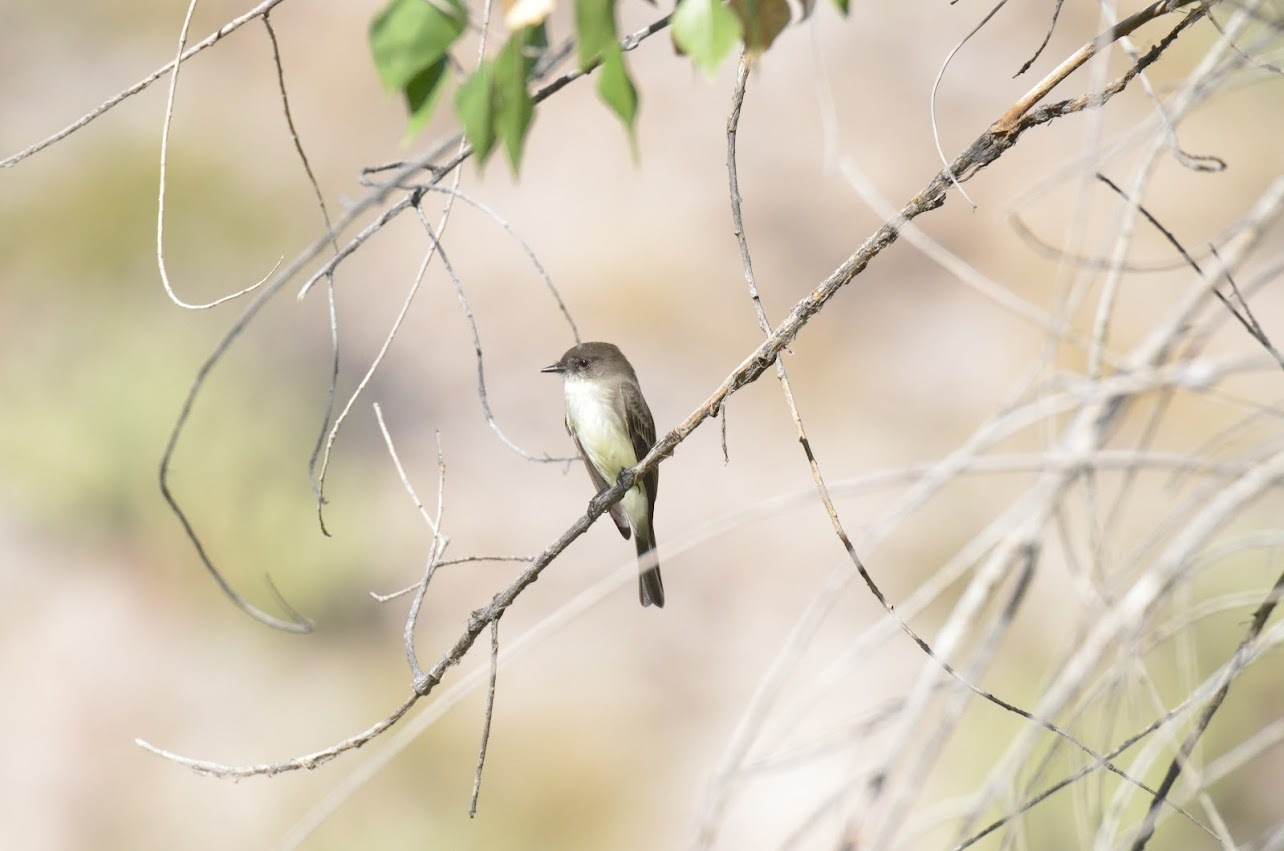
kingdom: Animalia
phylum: Chordata
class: Aves
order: Passeriformes
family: Tyrannidae
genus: Sayornis
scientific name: Sayornis phoebe
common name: Eastern phoebe
